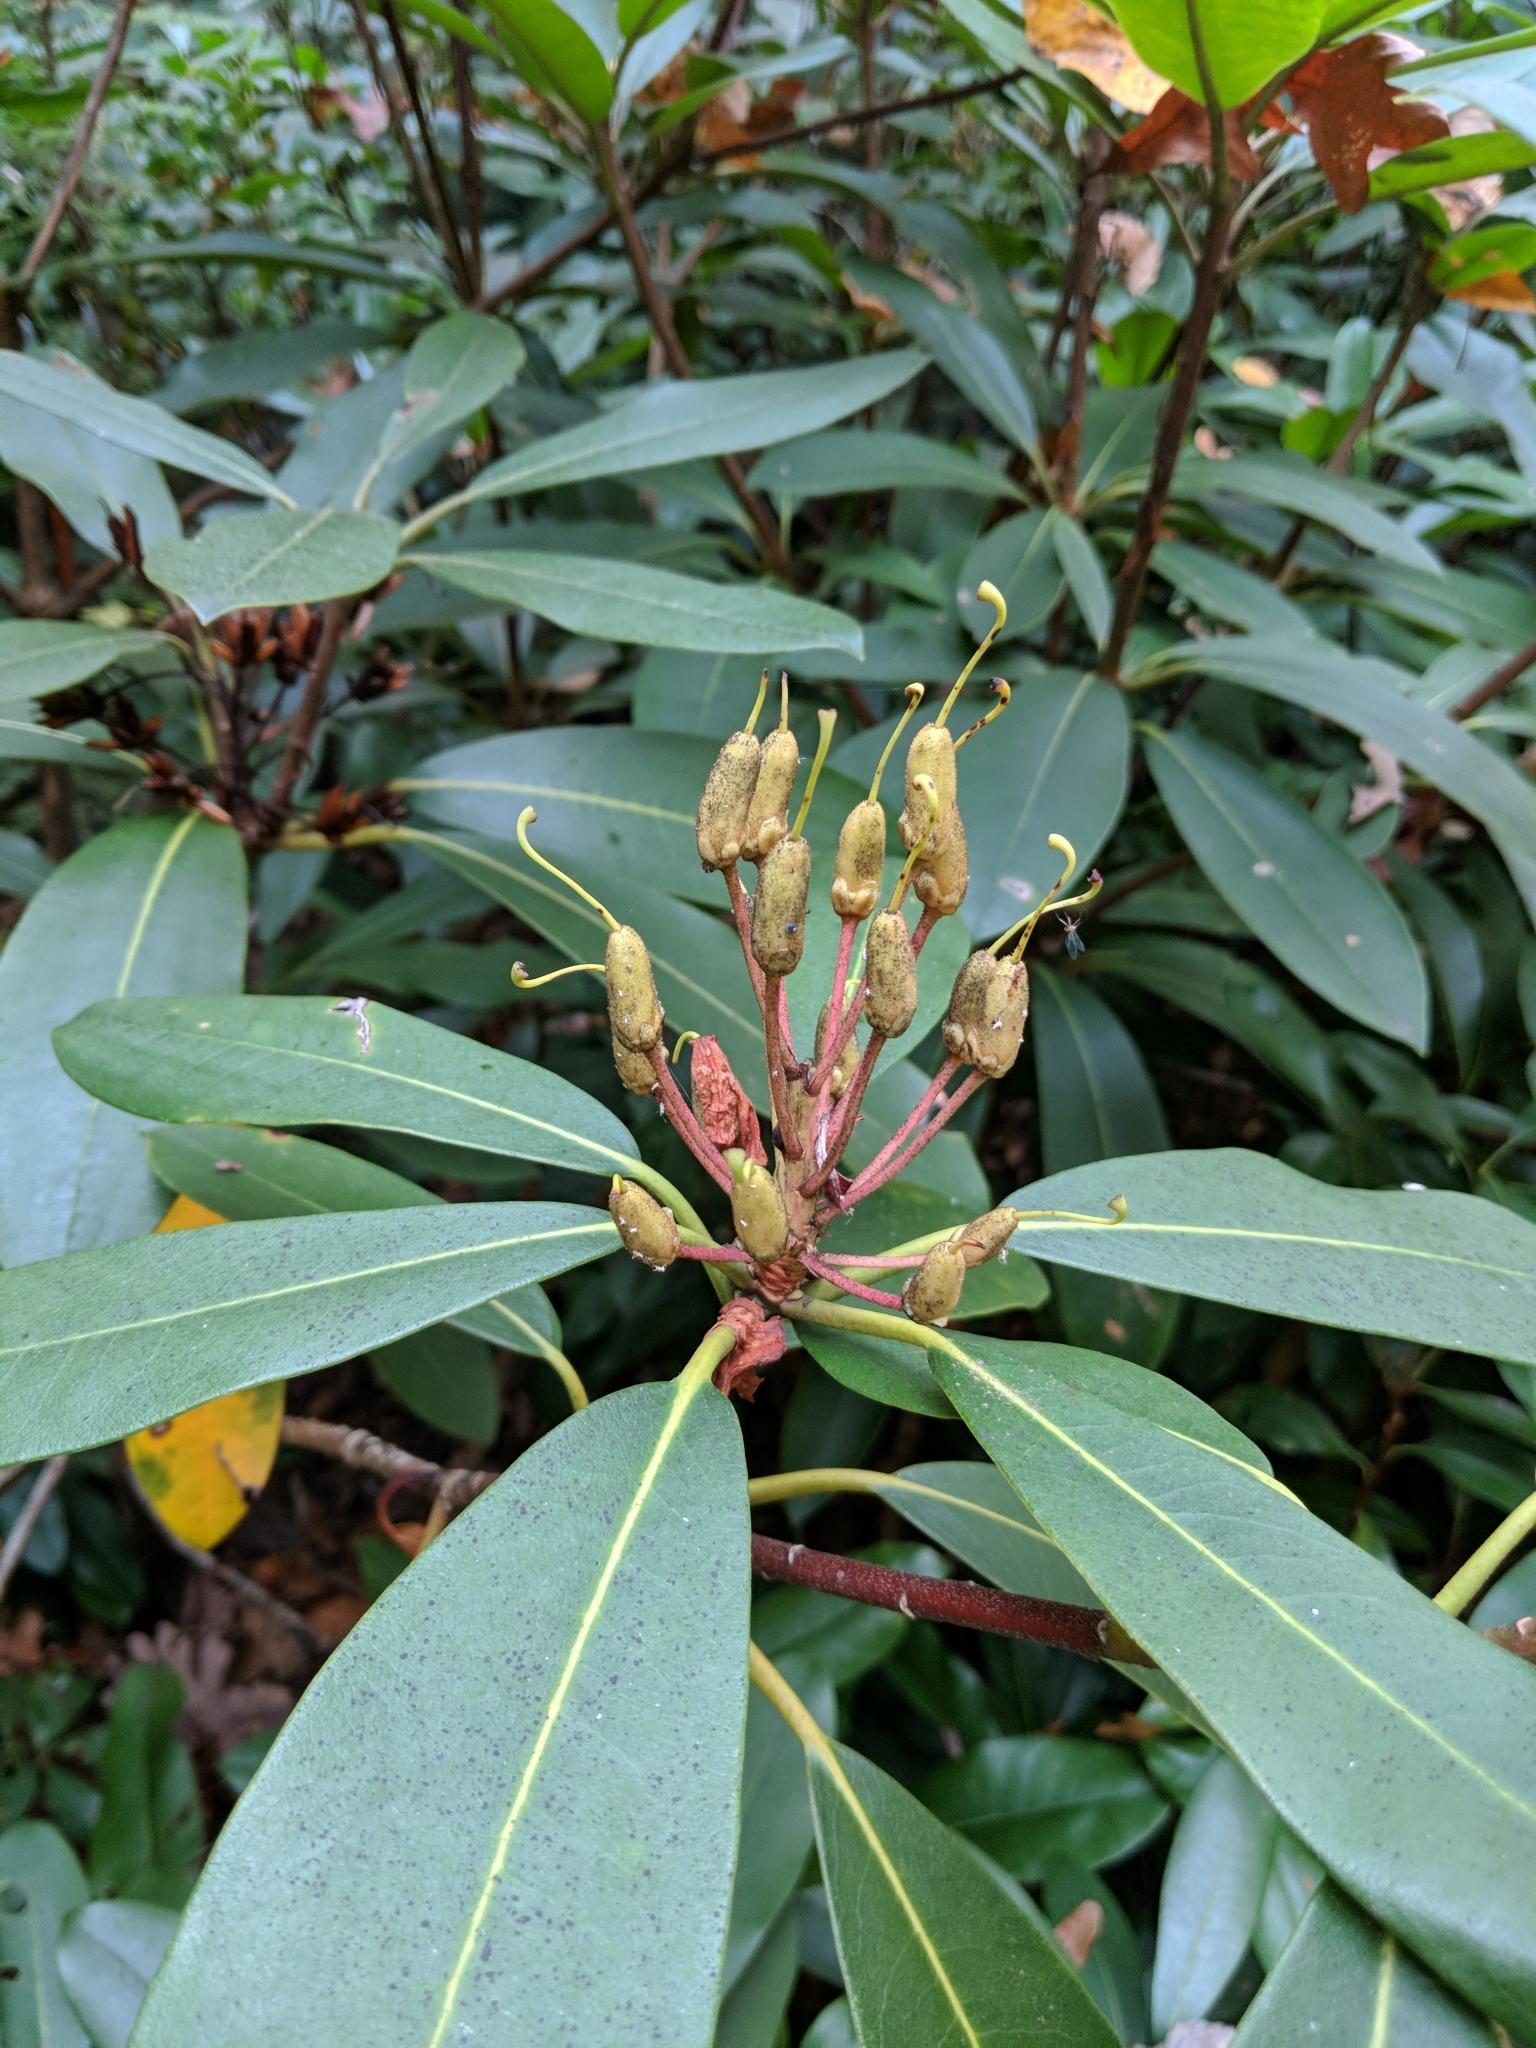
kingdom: Plantae
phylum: Tracheophyta
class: Magnoliopsida
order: Ericales
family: Ericaceae
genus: Rhododendron
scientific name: Rhododendron maximum
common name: Great rhododendron
